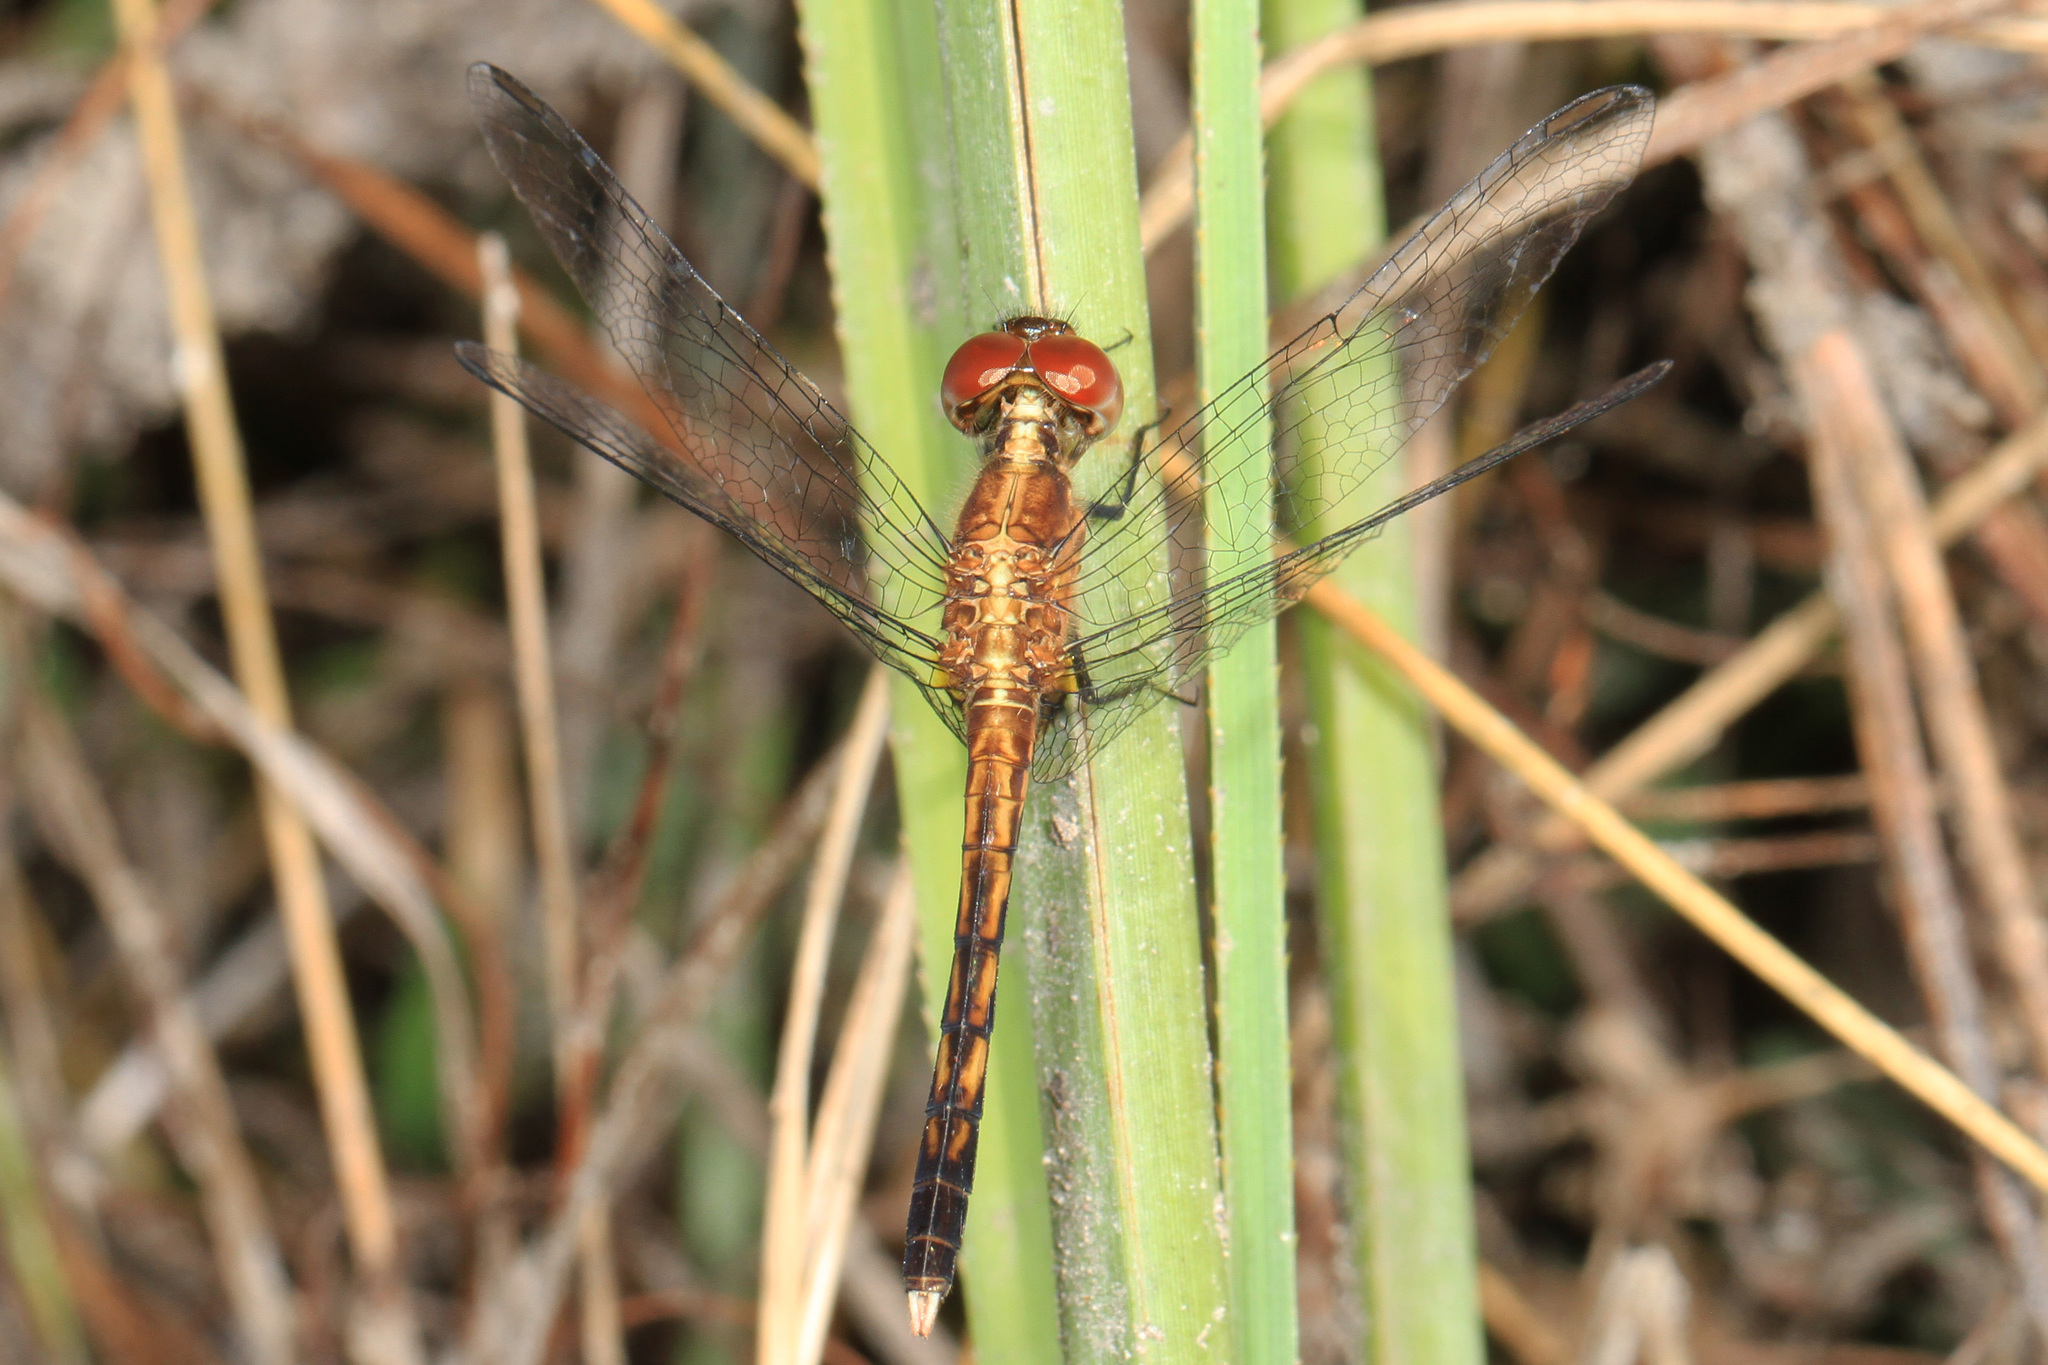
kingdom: Animalia
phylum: Arthropoda
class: Insecta
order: Odonata
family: Libellulidae
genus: Erythrodiplax
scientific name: Erythrodiplax minuscula
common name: Little blue dragonlet
